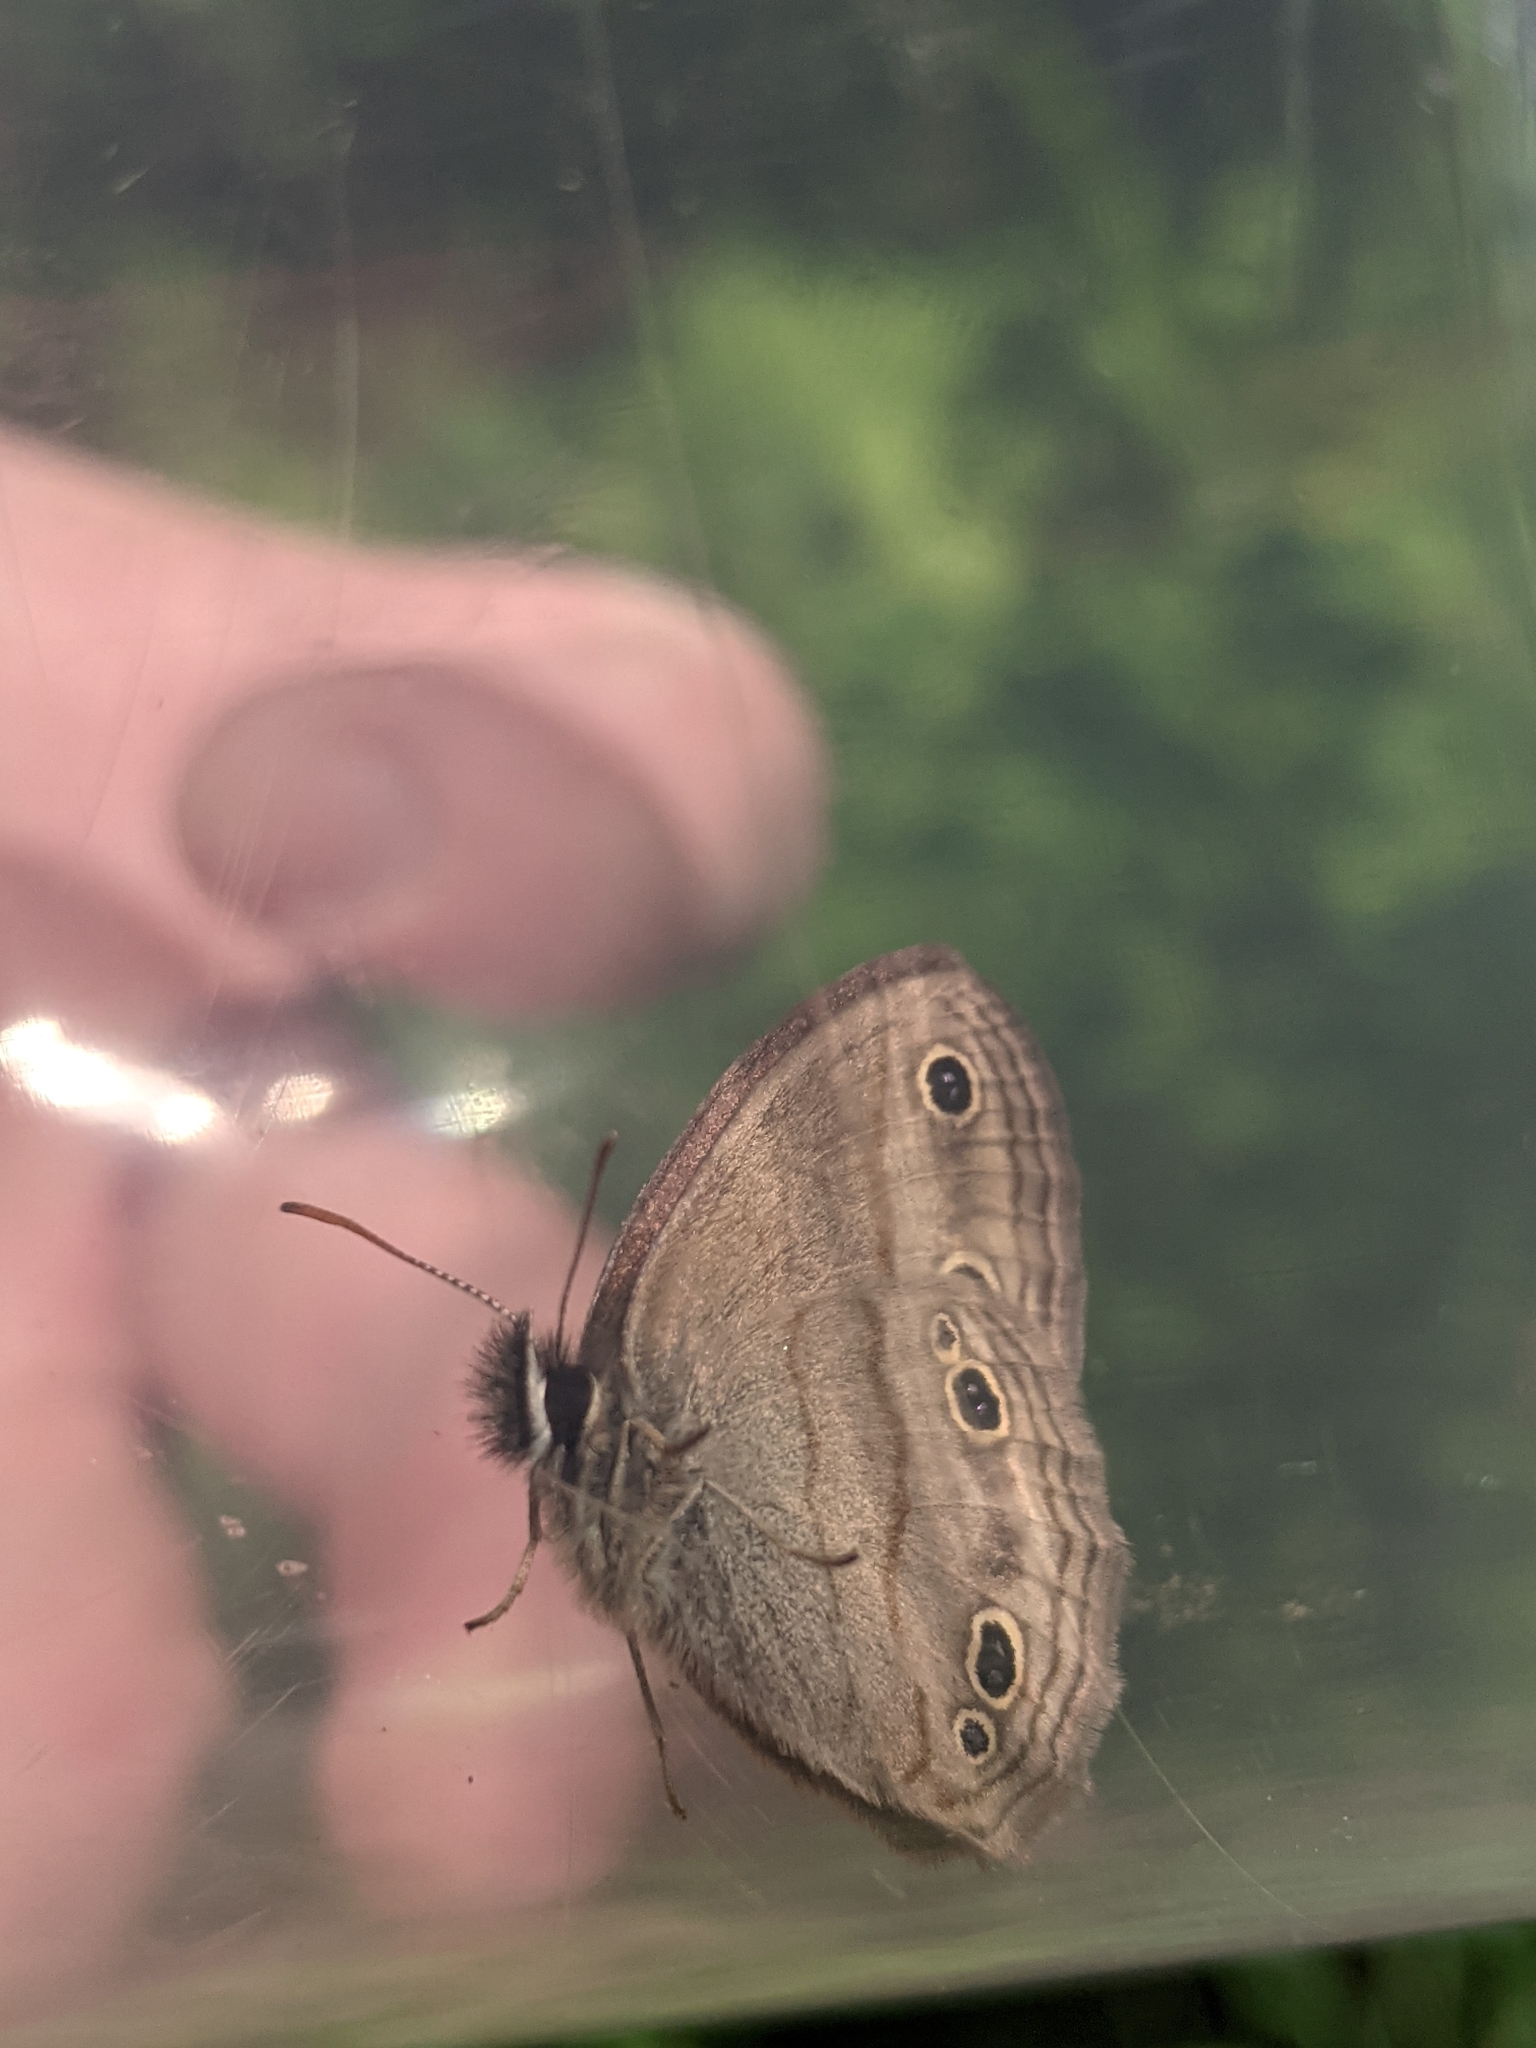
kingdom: Animalia
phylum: Arthropoda
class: Insecta
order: Lepidoptera
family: Nymphalidae
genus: Euptychia
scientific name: Euptychia cymela
